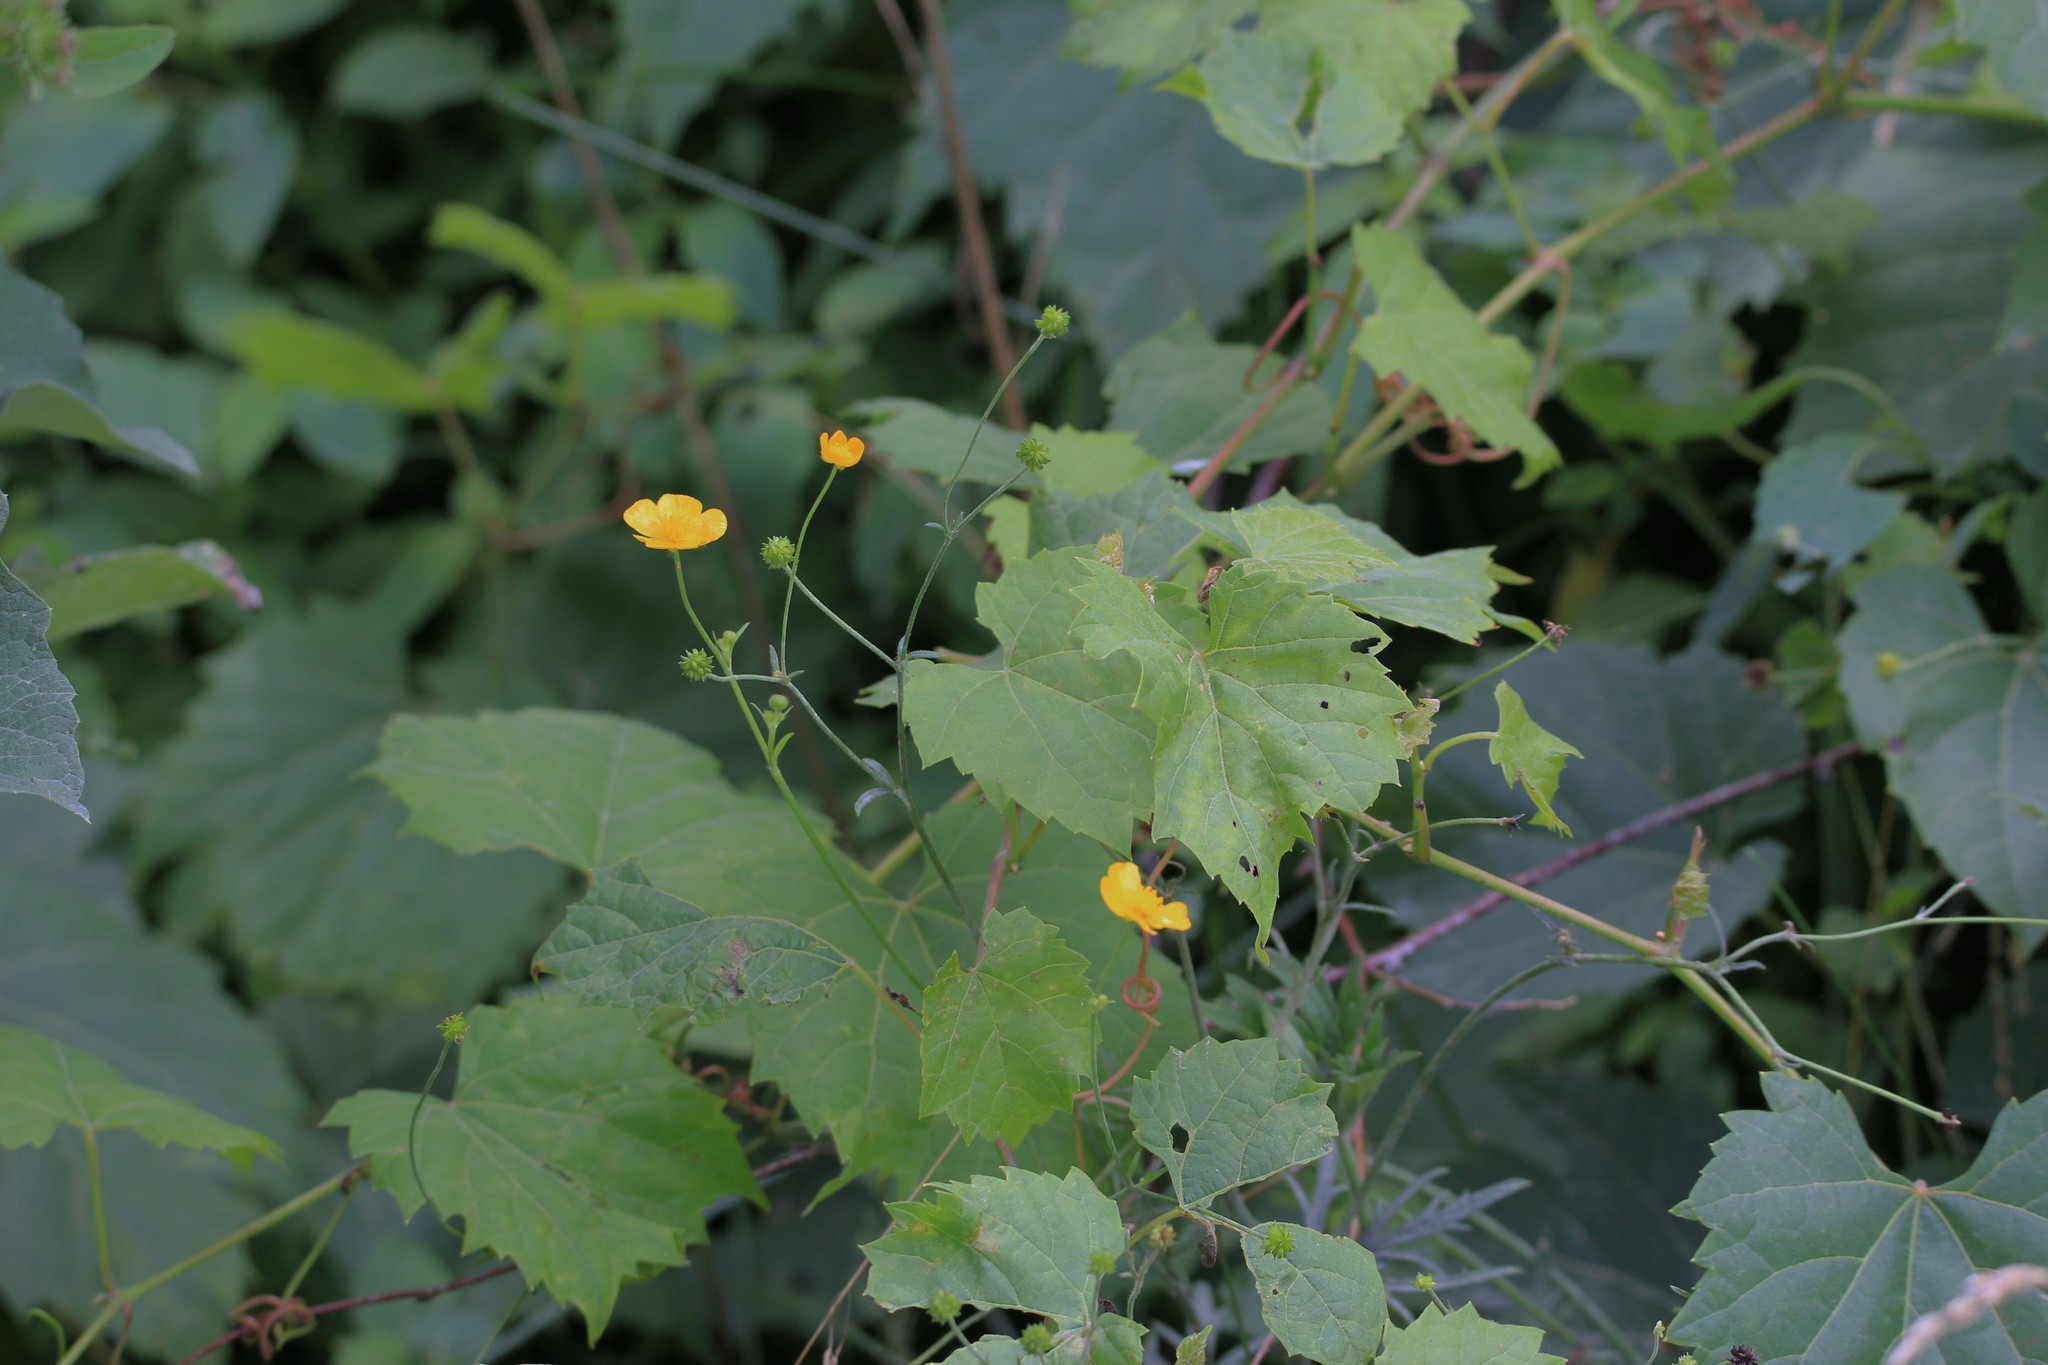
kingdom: Plantae
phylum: Tracheophyta
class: Magnoliopsida
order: Ranunculales
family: Ranunculaceae
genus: Ranunculus
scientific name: Ranunculus acris
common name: Meadow buttercup
